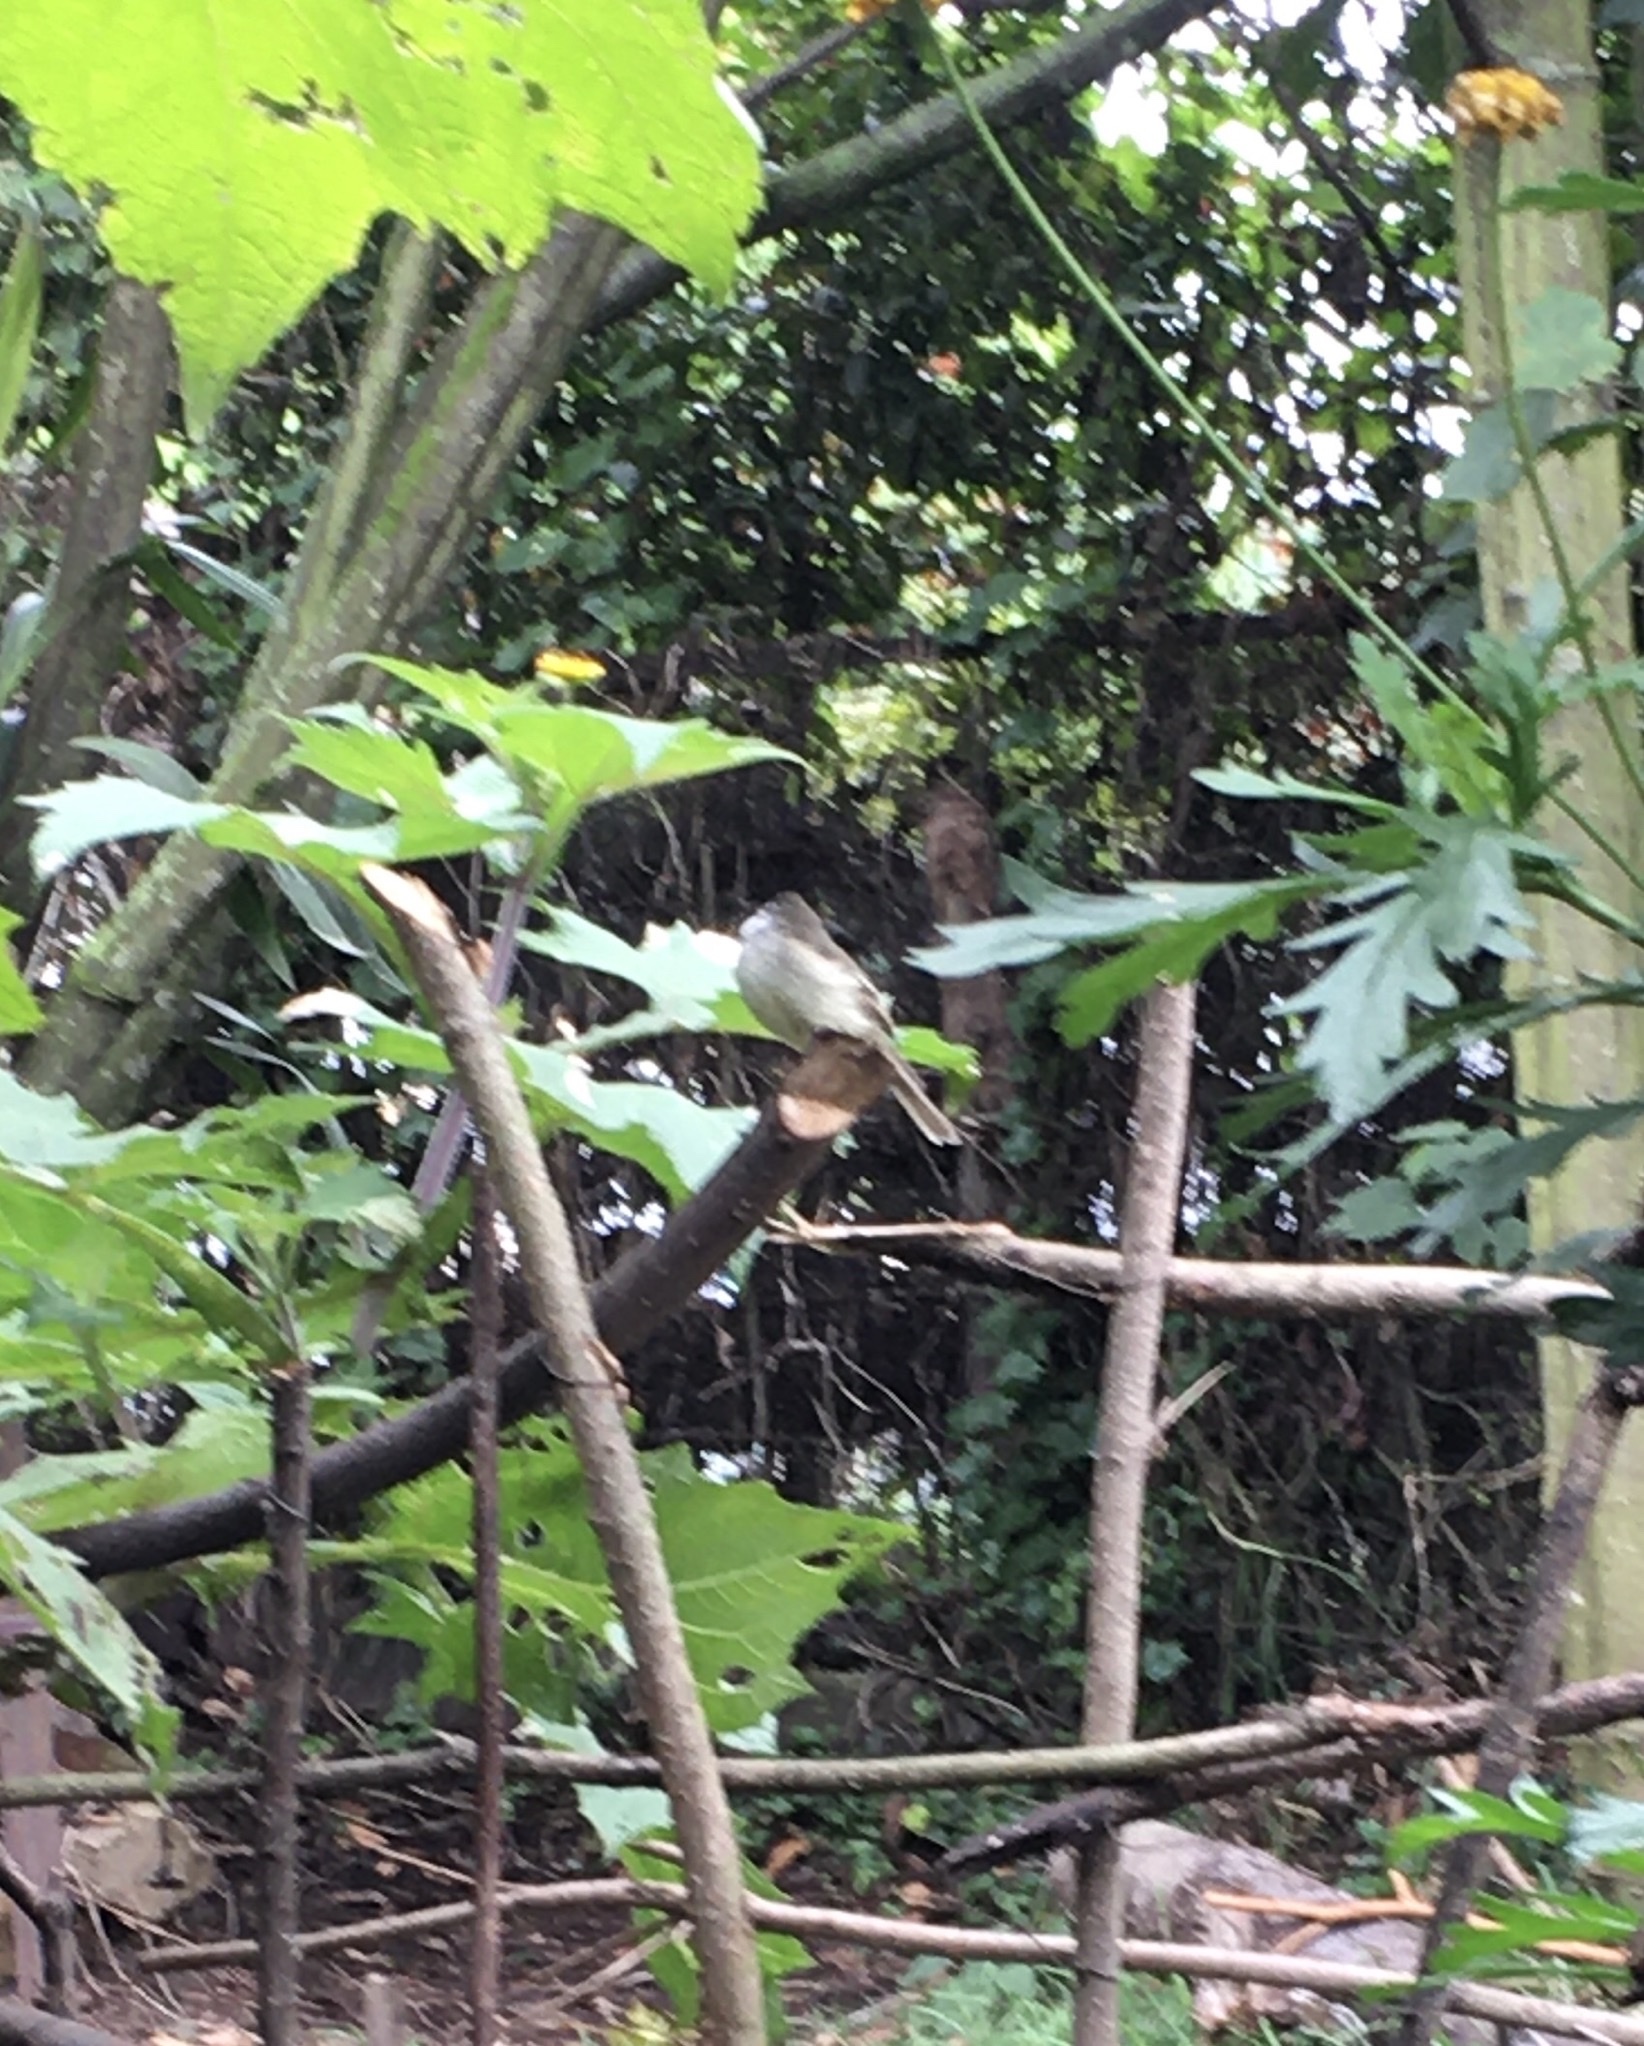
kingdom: Animalia
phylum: Chordata
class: Aves
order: Passeriformes
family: Tyrannidae
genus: Mecocerculus
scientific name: Mecocerculus leucophrys
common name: White-throated tyrannulet
